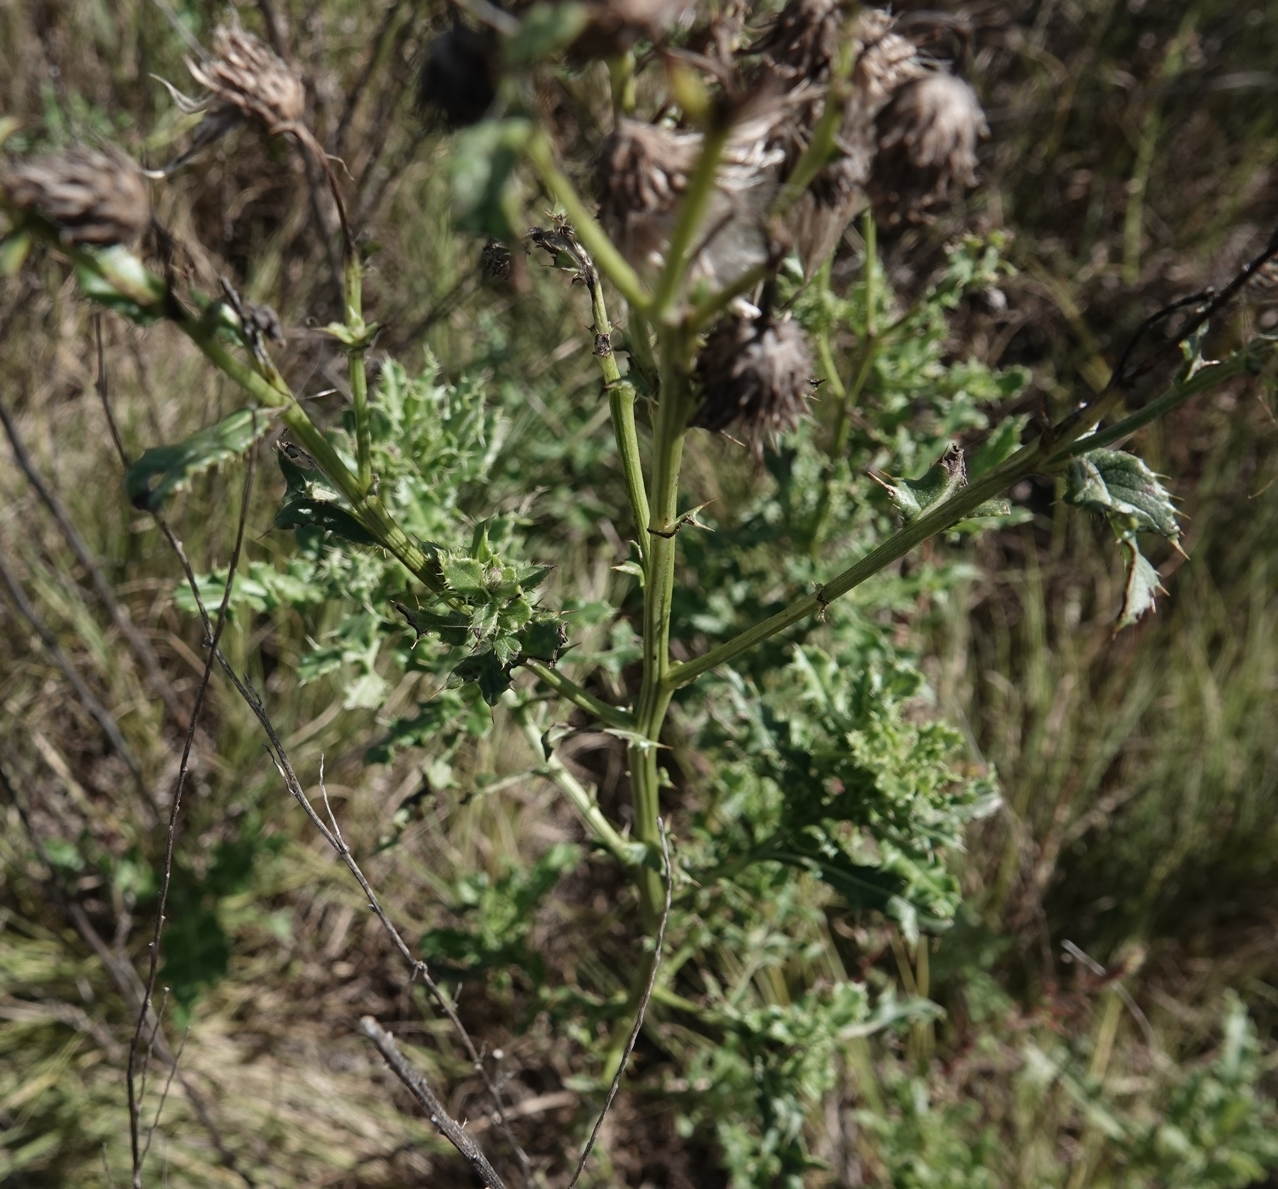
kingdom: Plantae
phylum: Tracheophyta
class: Magnoliopsida
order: Asterales
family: Asteraceae
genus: Cirsium
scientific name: Cirsium arvense
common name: Creeping thistle
